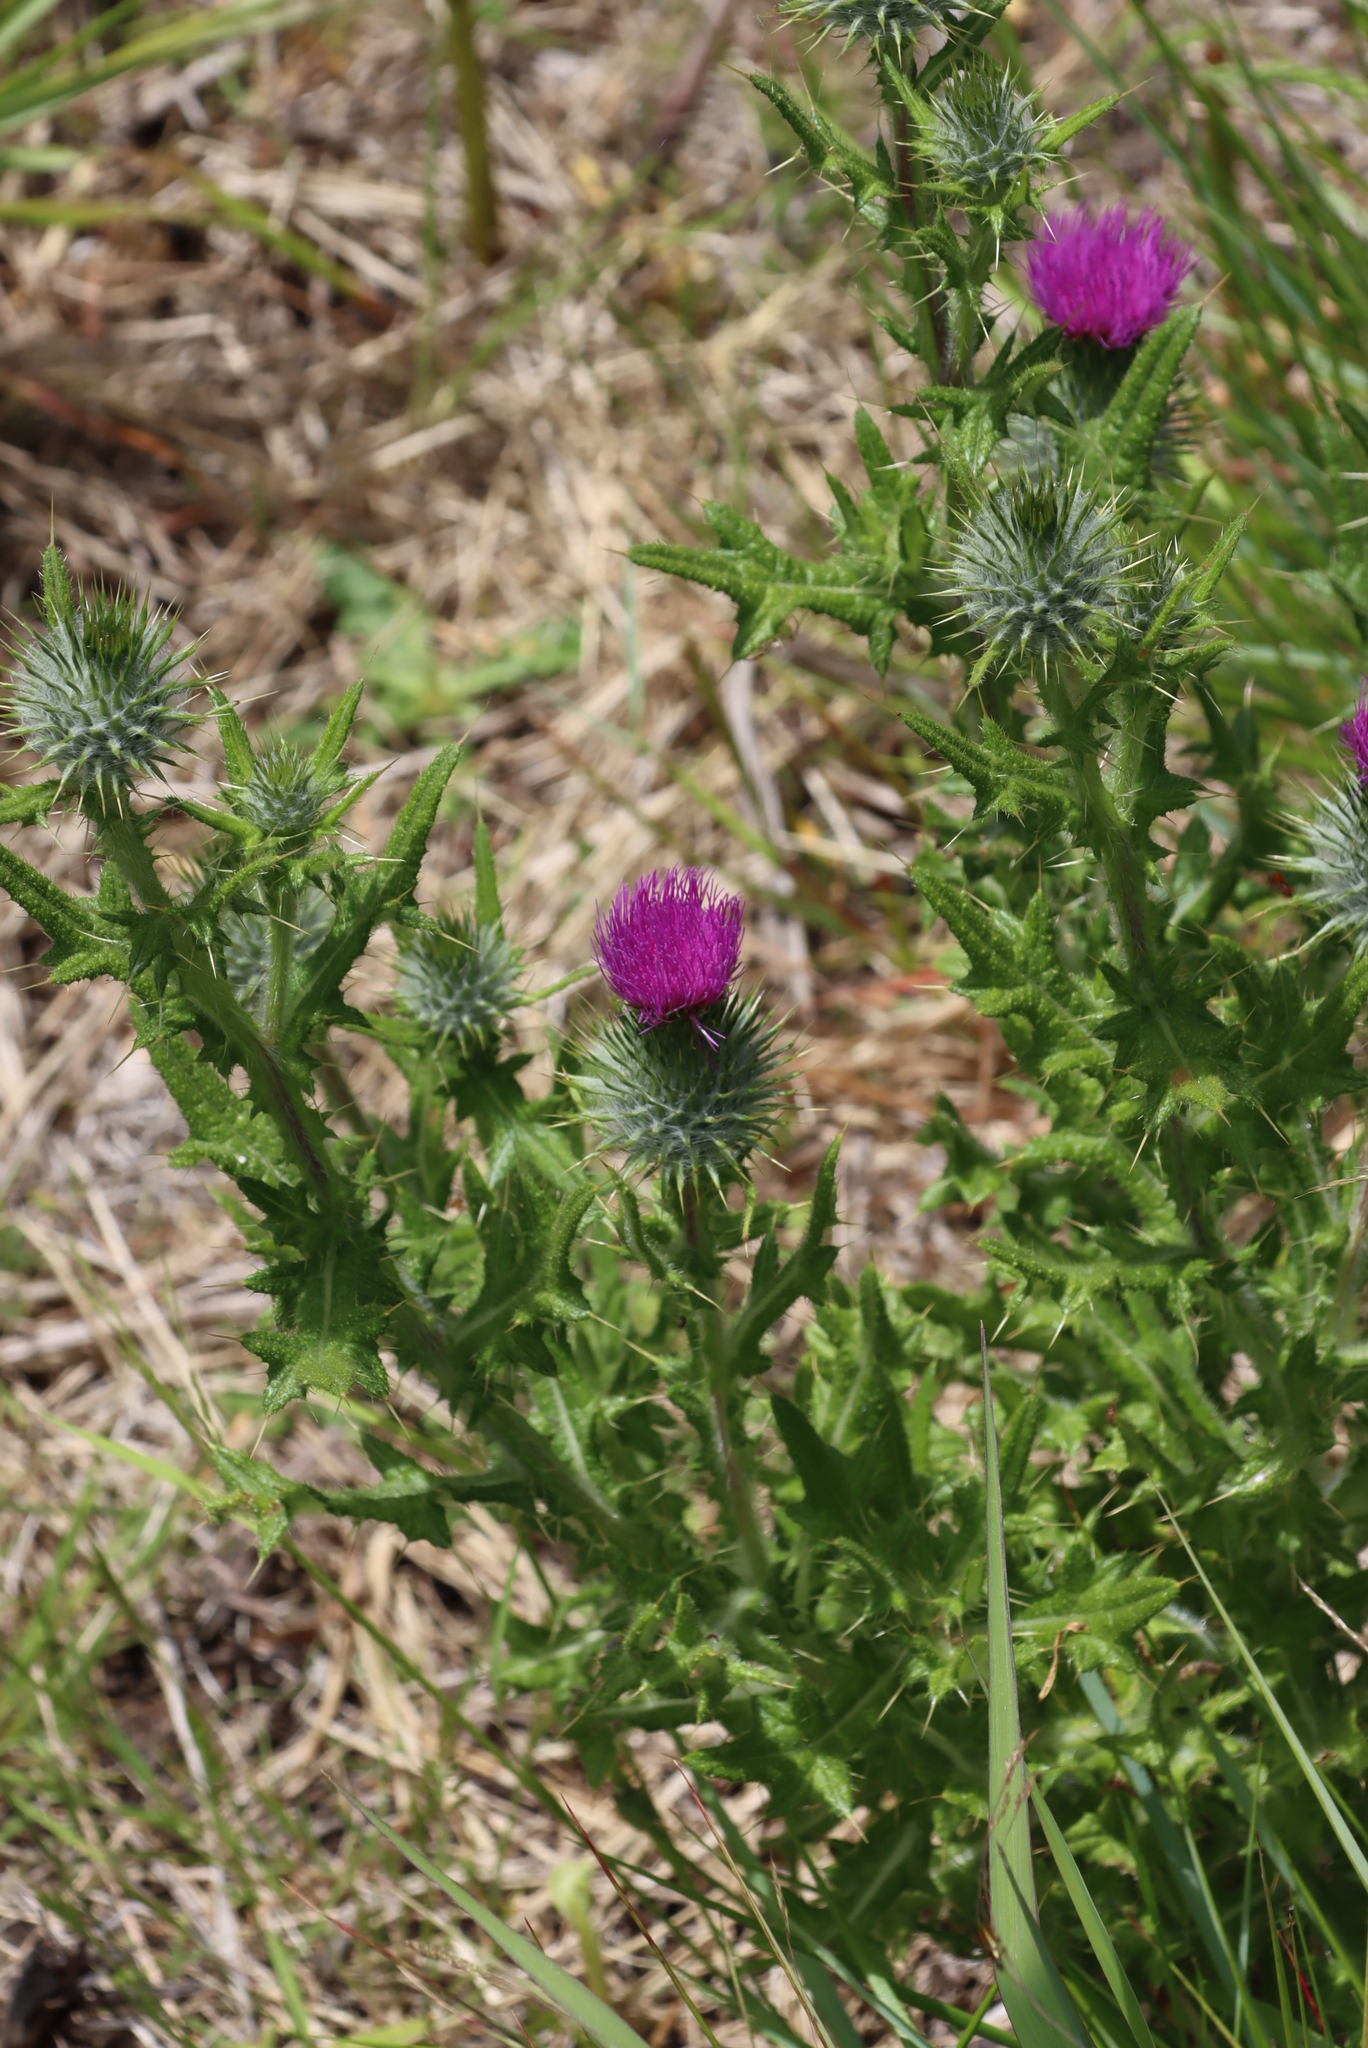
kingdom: Plantae
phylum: Tracheophyta
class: Magnoliopsida
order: Asterales
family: Asteraceae
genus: Cirsium
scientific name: Cirsium vulgare
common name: Bull thistle
